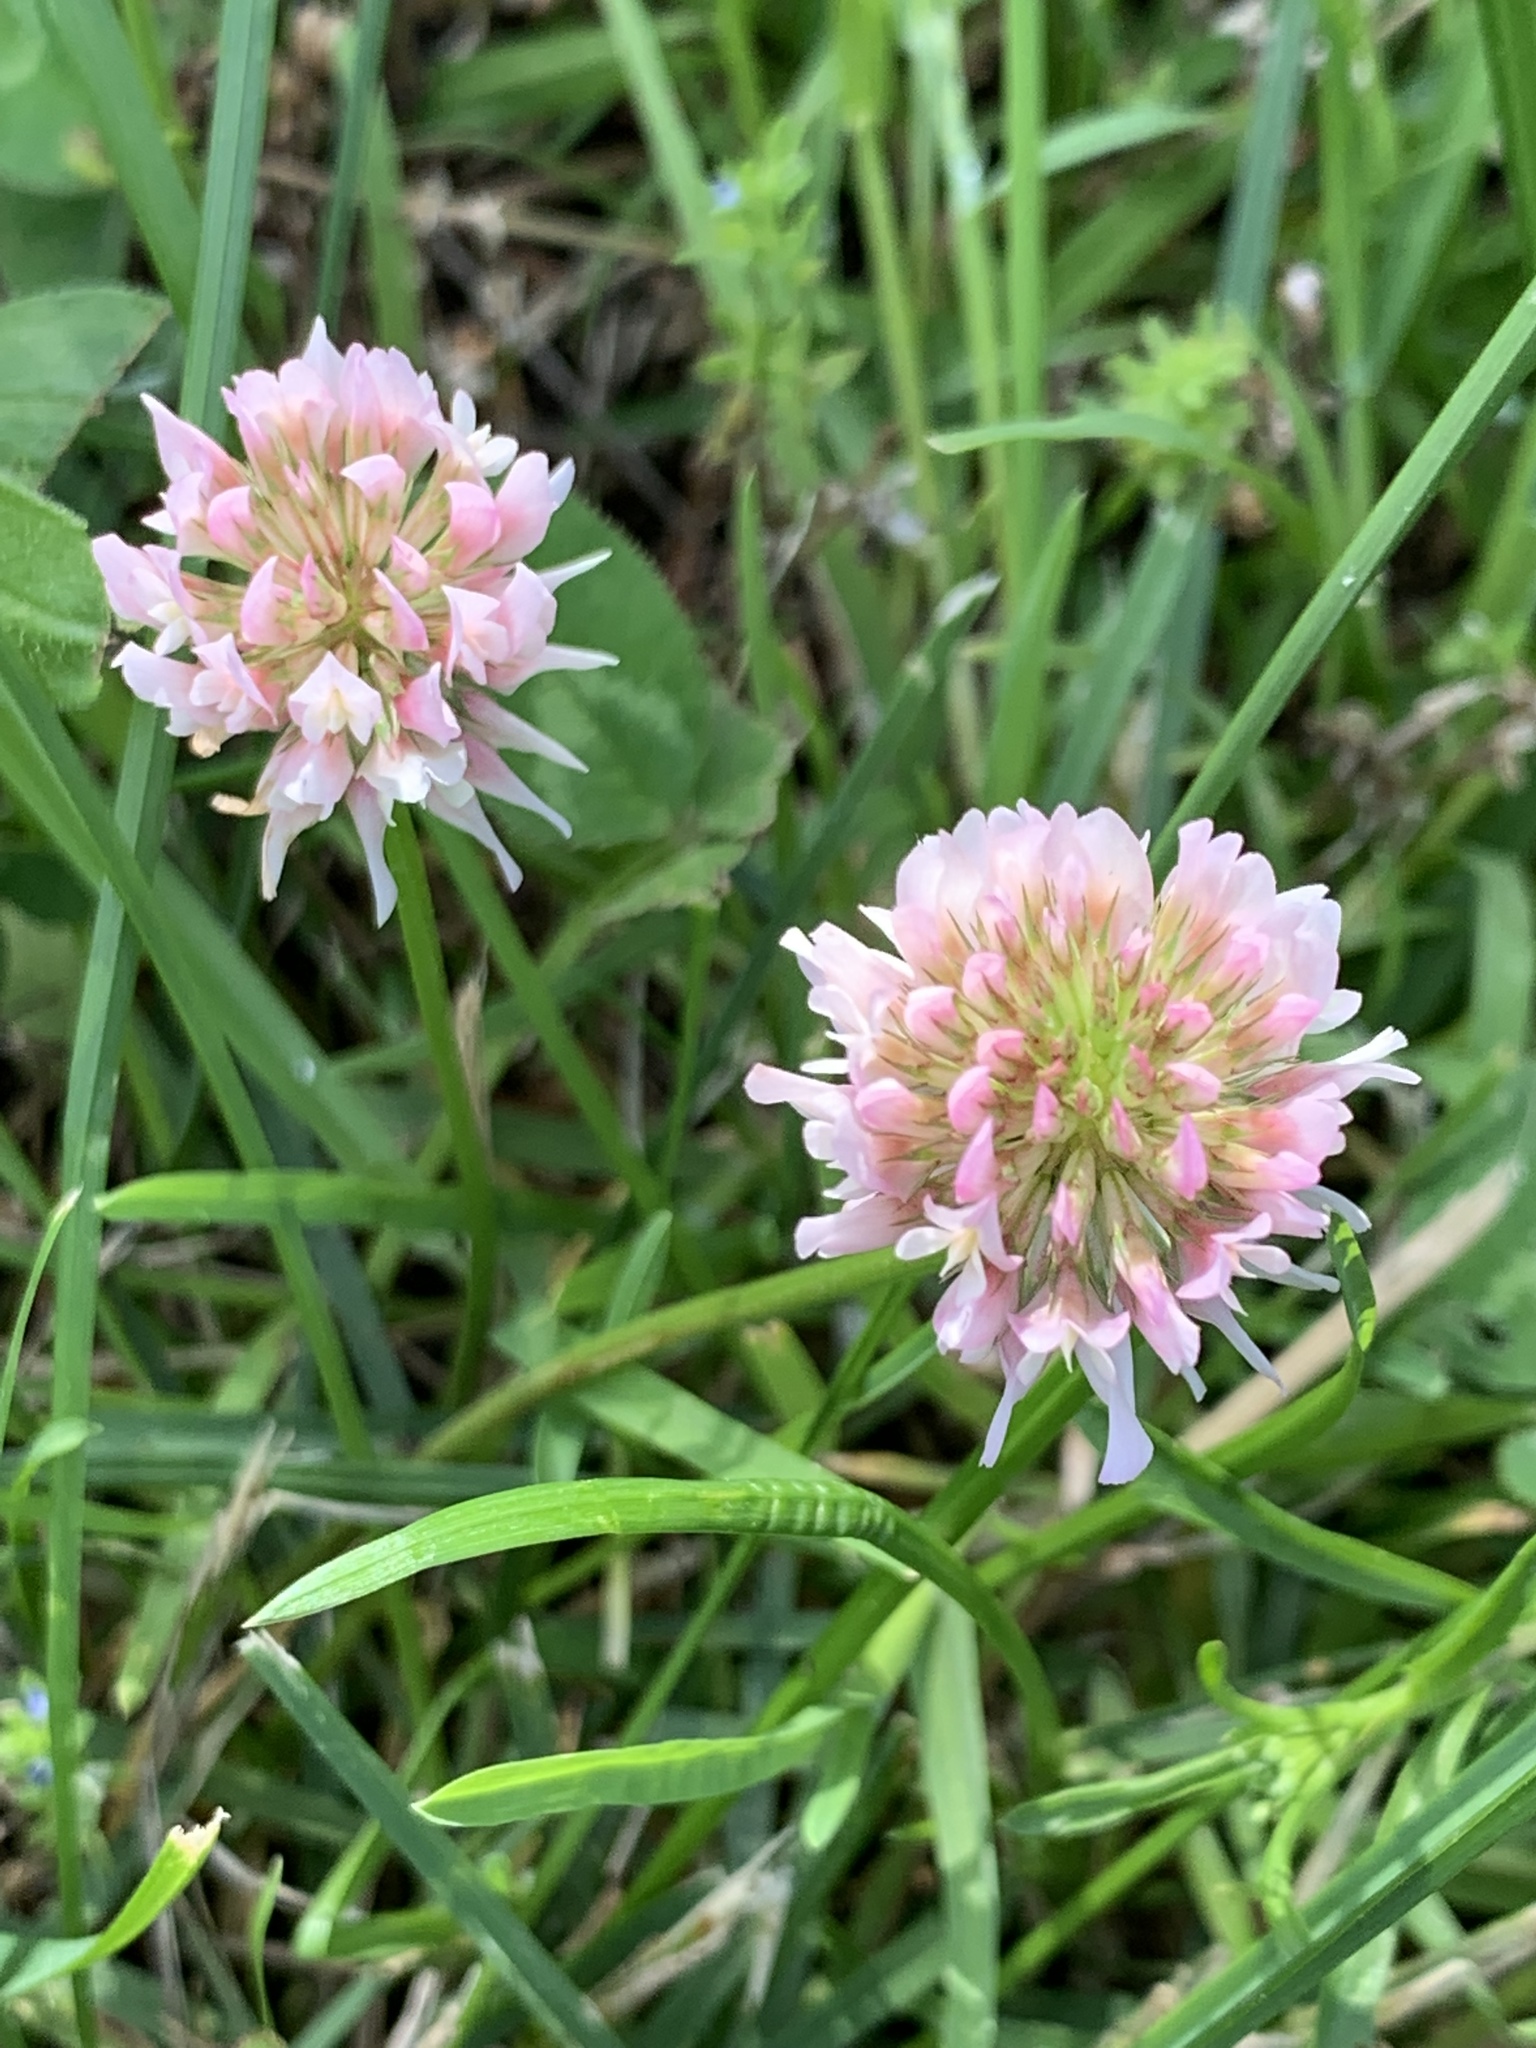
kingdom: Plantae
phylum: Tracheophyta
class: Magnoliopsida
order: Fabales
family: Fabaceae
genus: Trifolium
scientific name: Trifolium repens
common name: White clover
